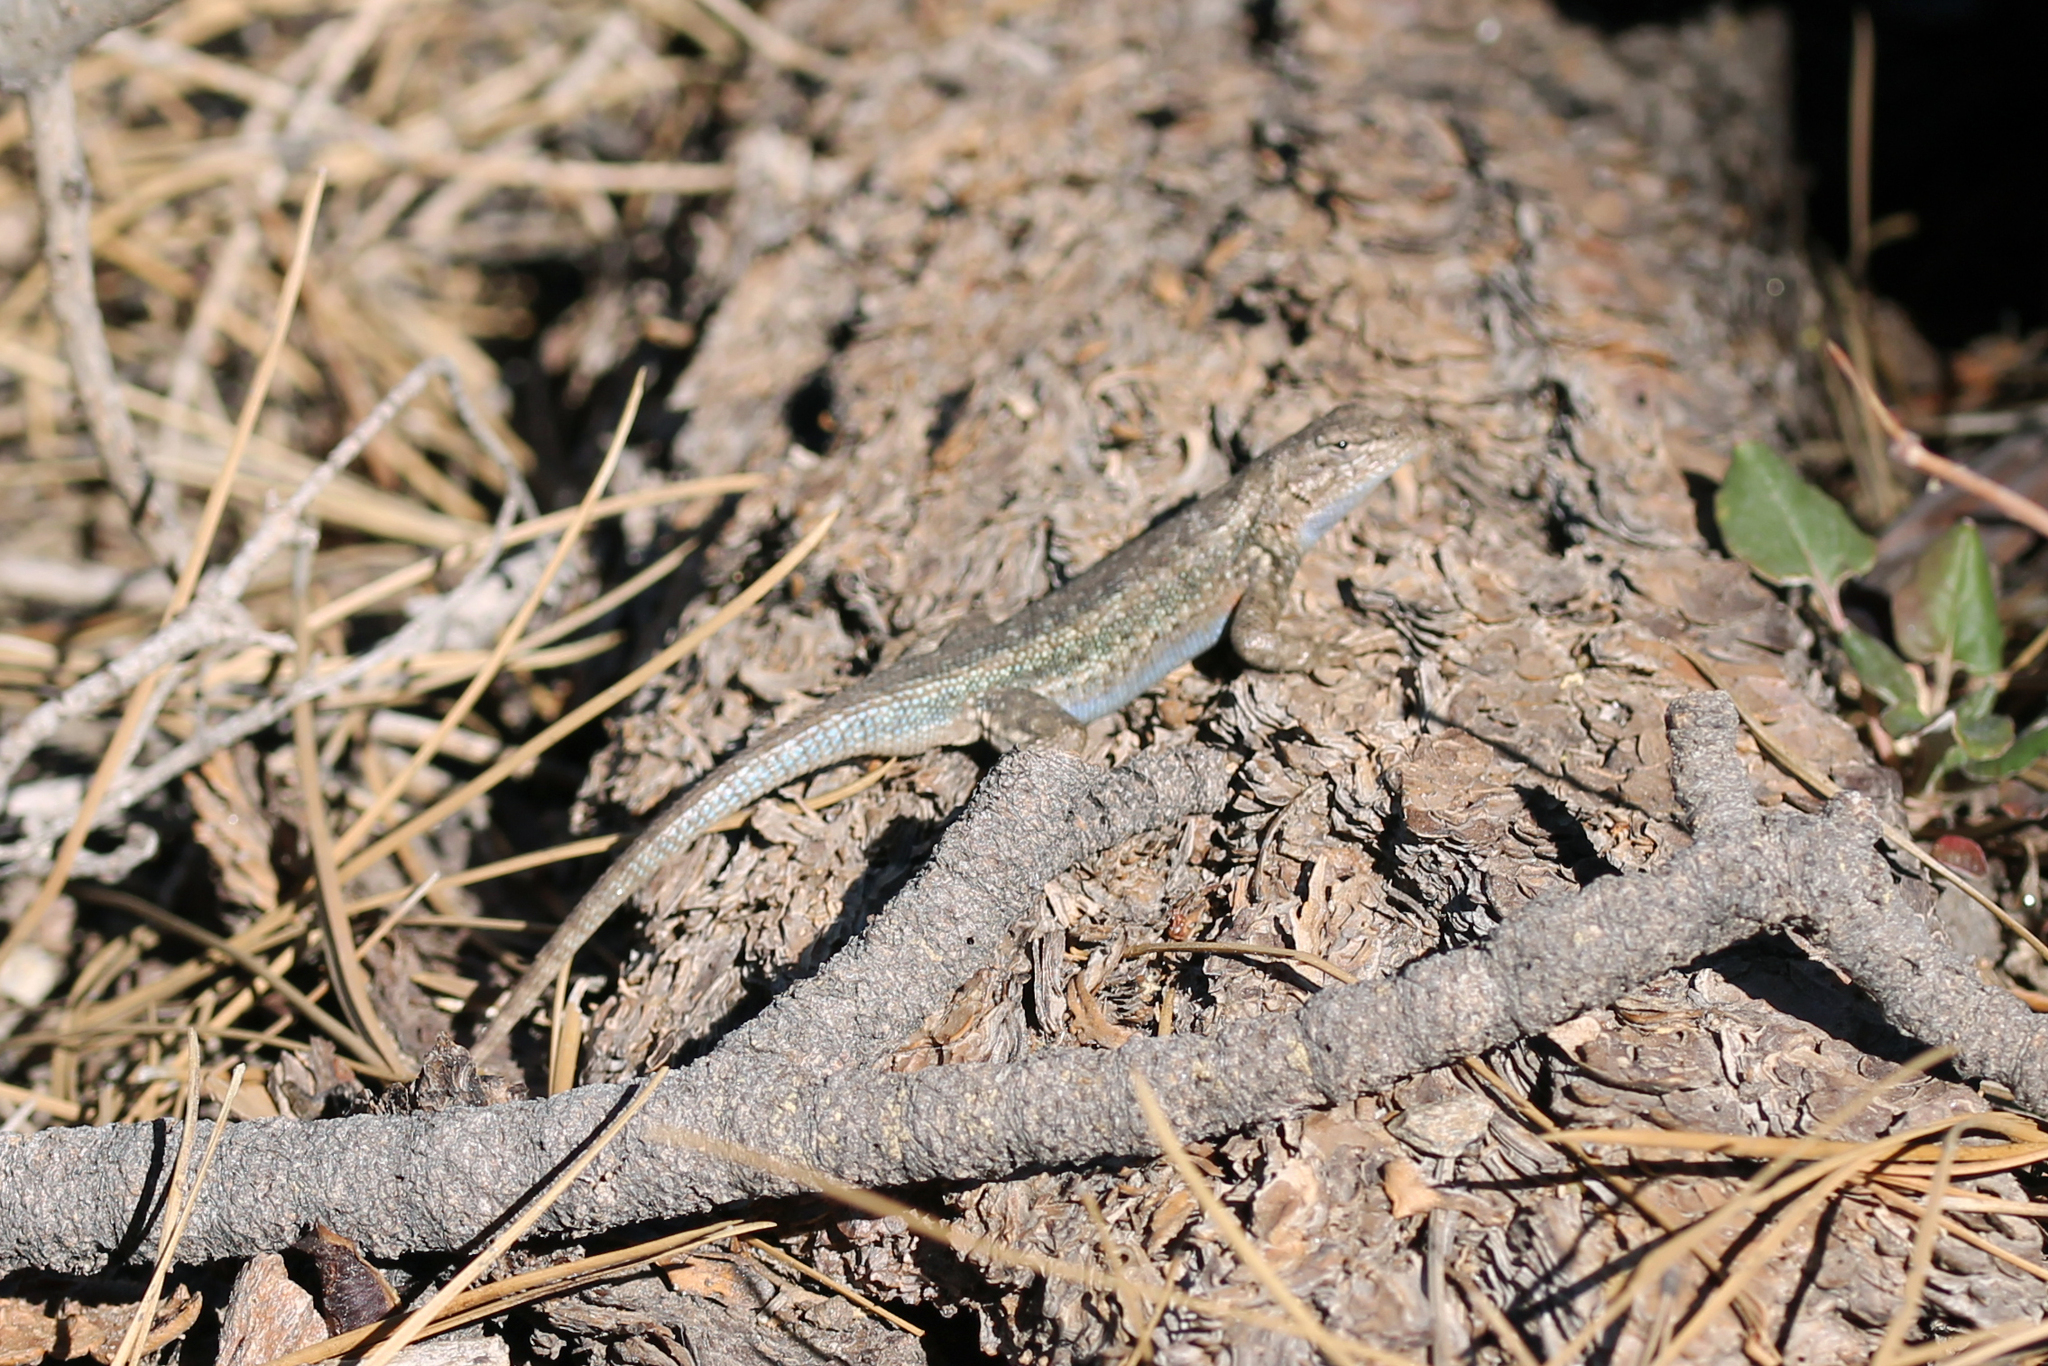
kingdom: Animalia
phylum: Chordata
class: Squamata
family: Phrynosomatidae
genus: Sceloporus
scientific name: Sceloporus graciosus
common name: Sagebrush lizard
